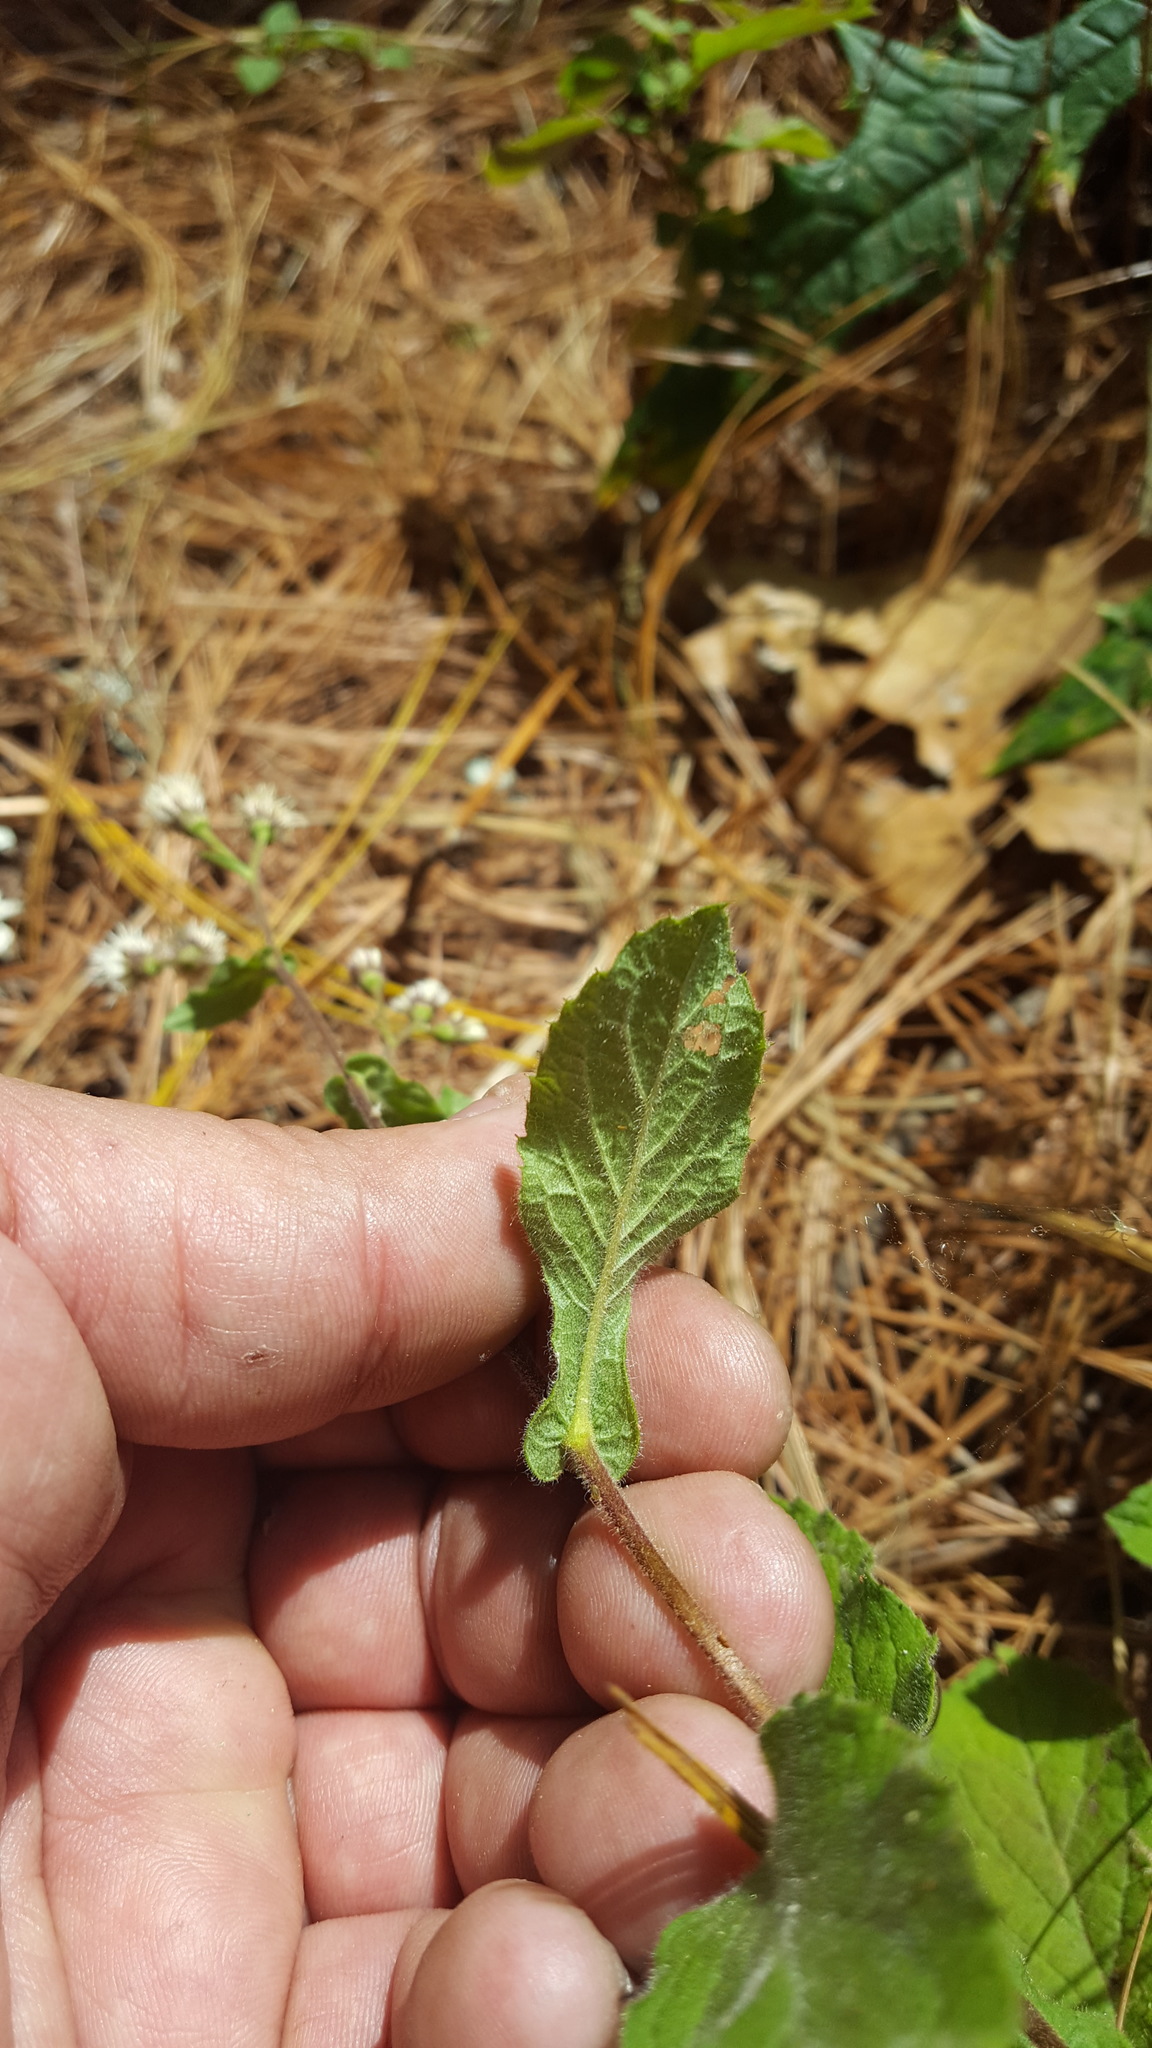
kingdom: Plantae
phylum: Tracheophyta
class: Magnoliopsida
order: Asterales
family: Asteraceae
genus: Archibaccharis
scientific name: Archibaccharis auriculata
